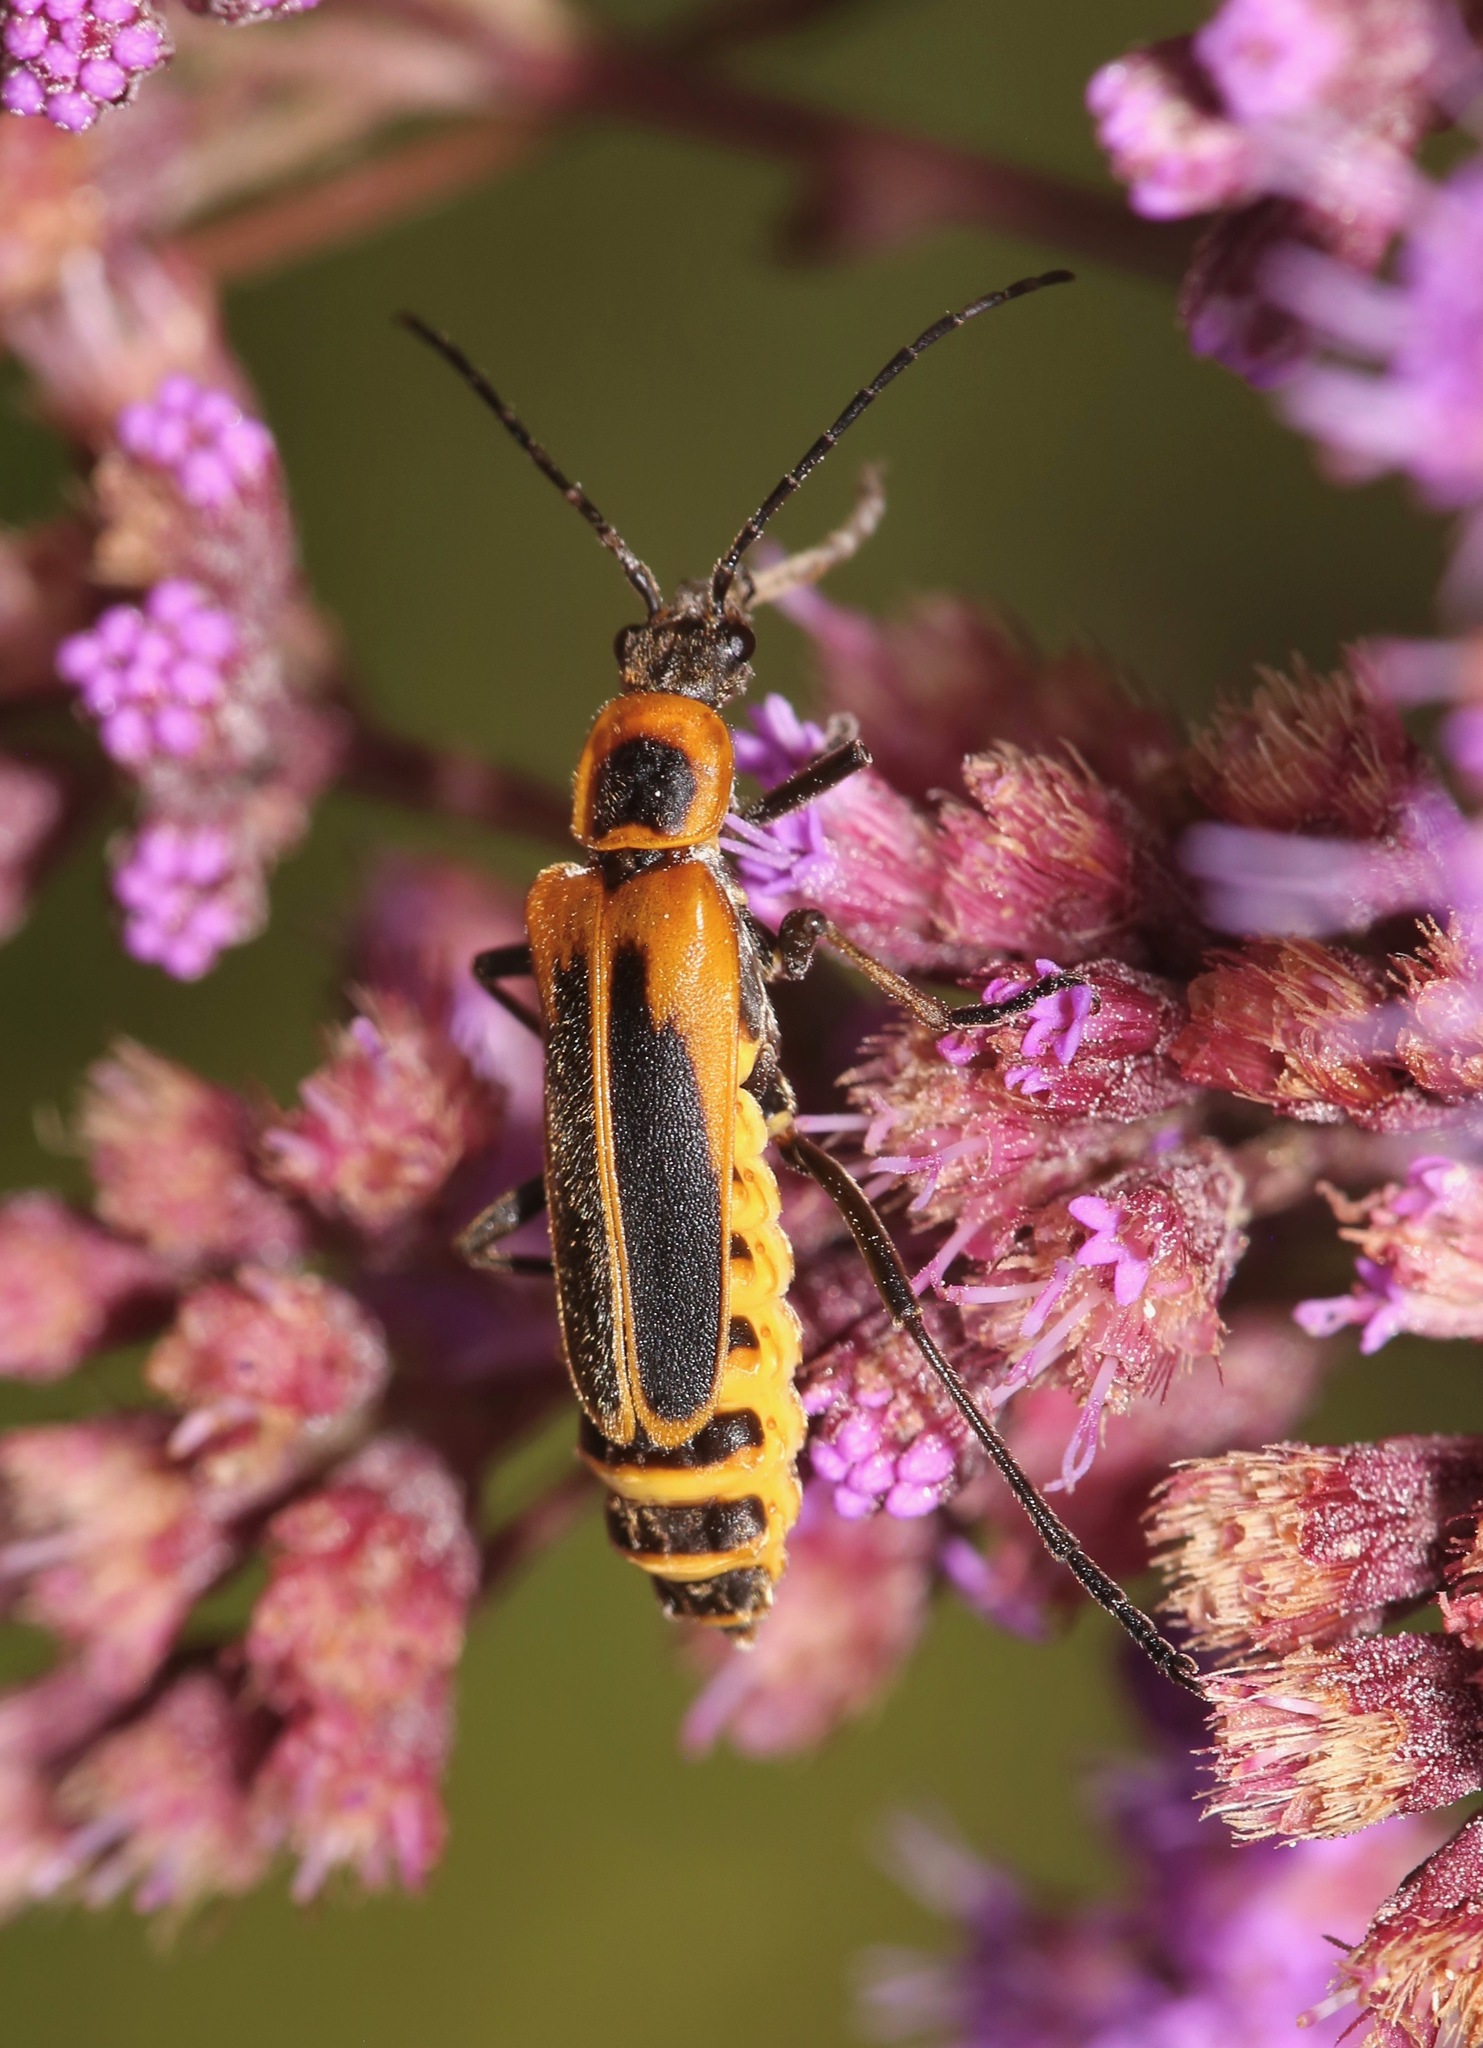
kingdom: Animalia
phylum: Arthropoda
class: Insecta
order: Coleoptera
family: Cantharidae
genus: Chauliognathus
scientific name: Chauliognathus pensylvanicus
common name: Goldenrod soldier beetle
